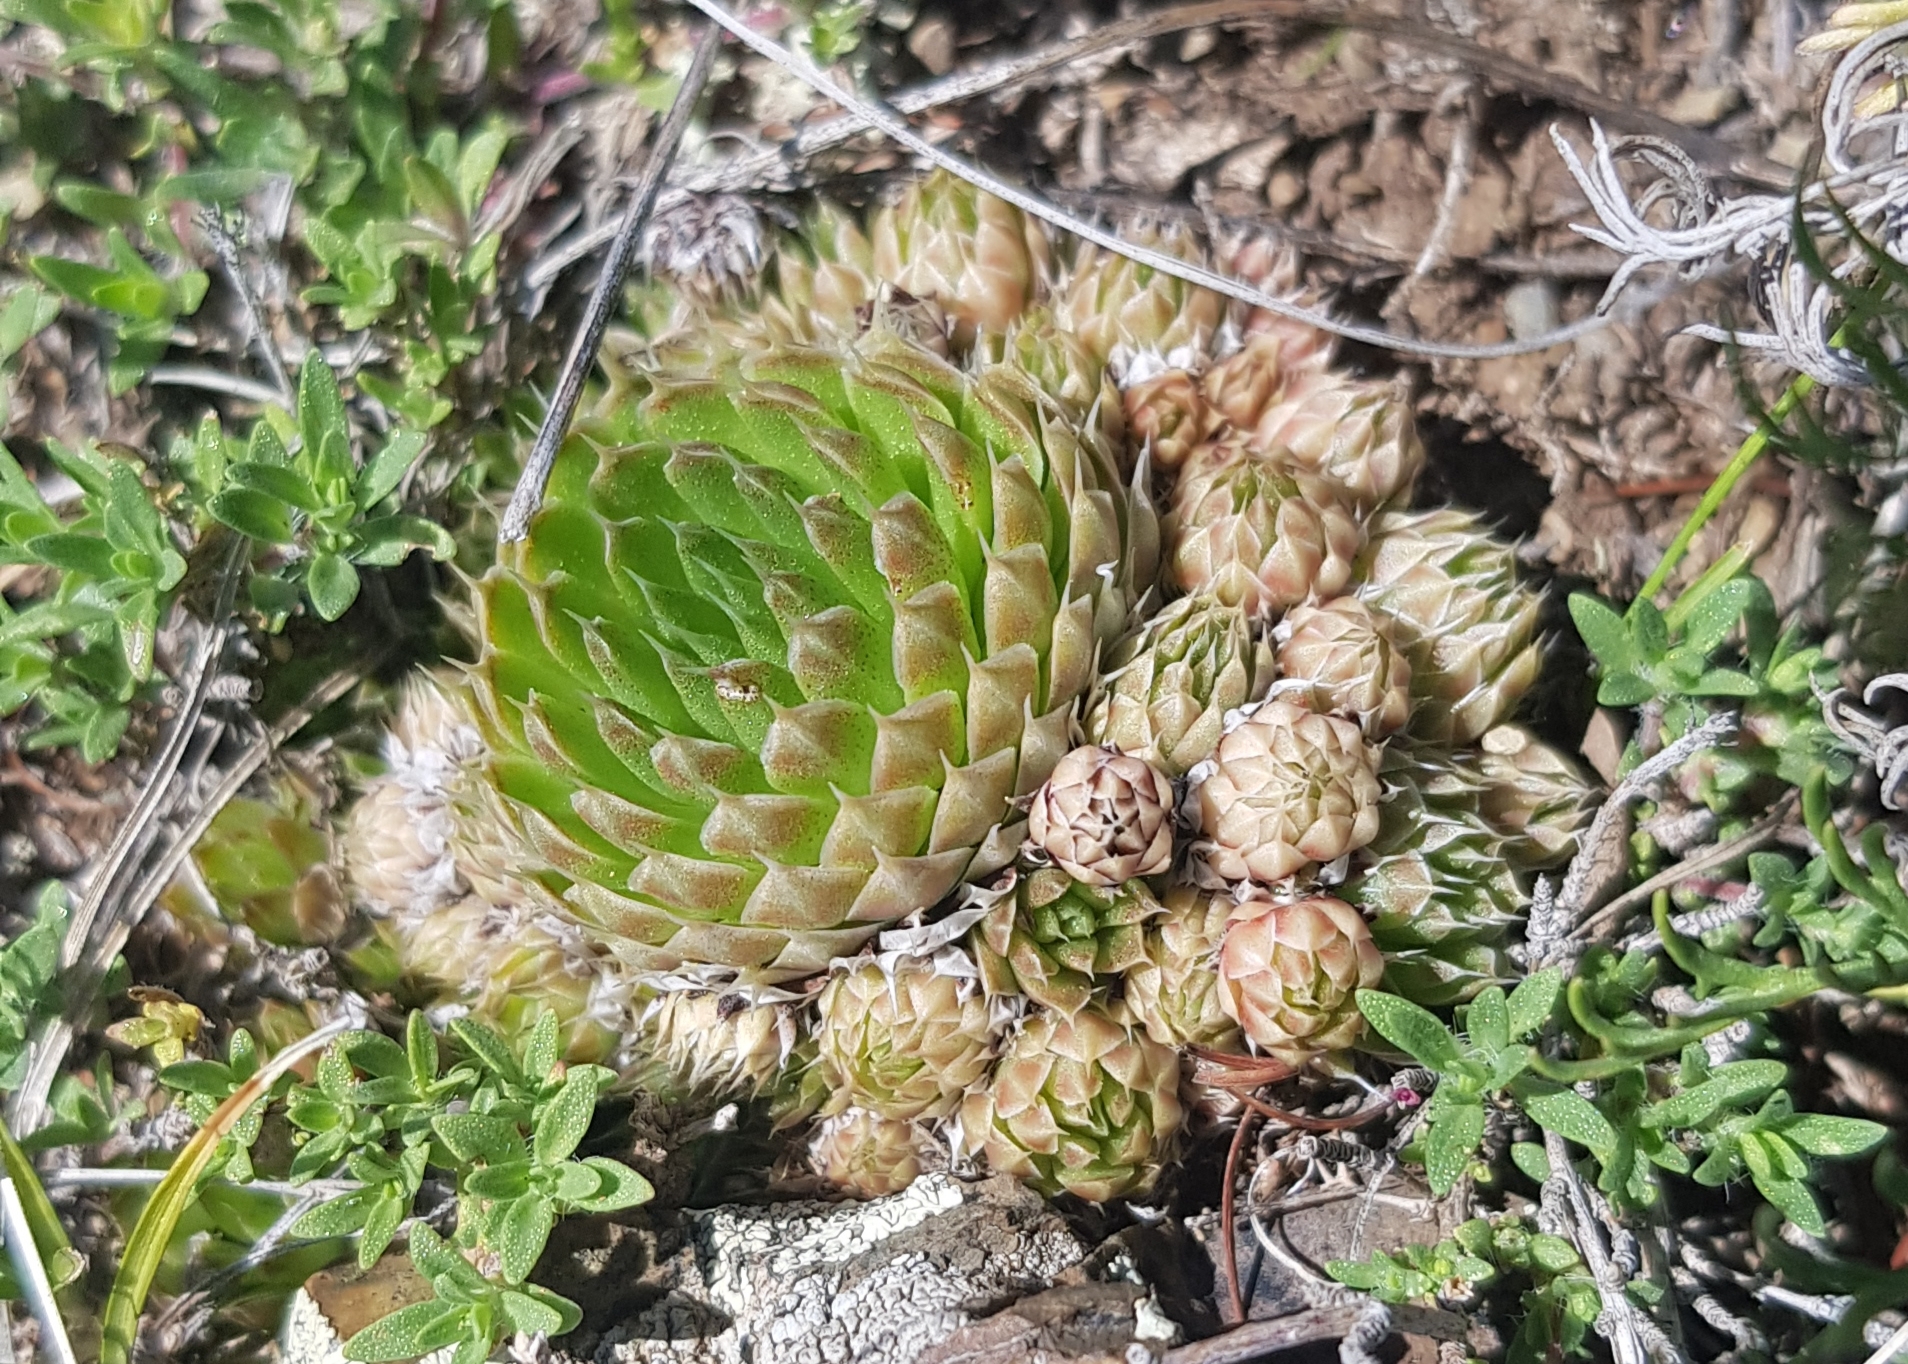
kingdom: Plantae
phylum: Tracheophyta
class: Magnoliopsida
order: Saxifragales
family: Crassulaceae
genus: Orostachys
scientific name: Orostachys spinosa
